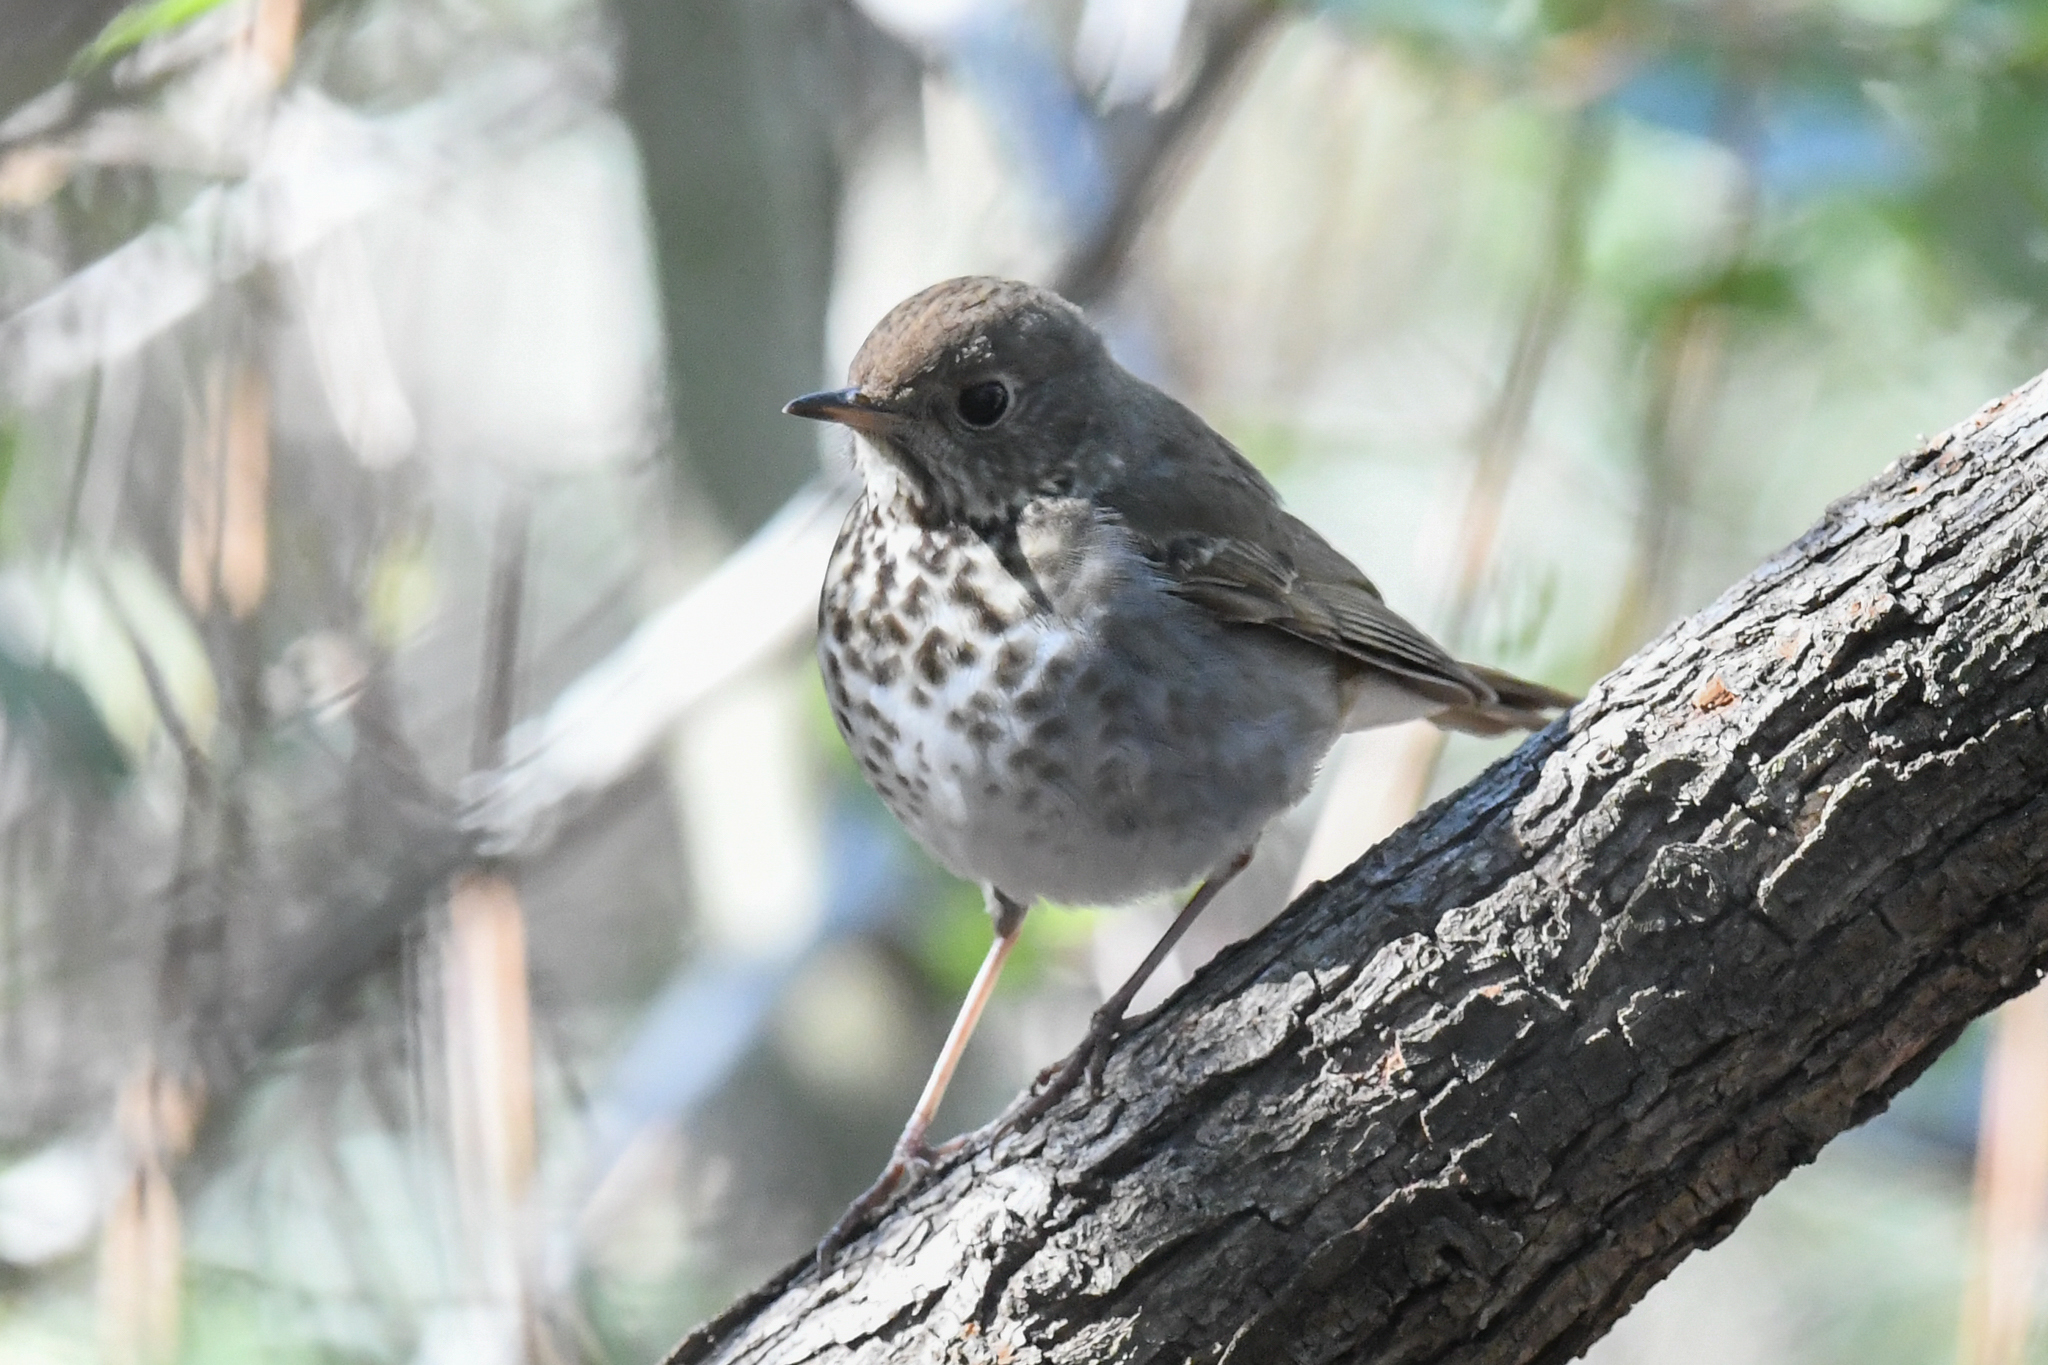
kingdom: Animalia
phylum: Chordata
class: Aves
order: Passeriformes
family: Turdidae
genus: Catharus
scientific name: Catharus guttatus
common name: Hermit thrush
